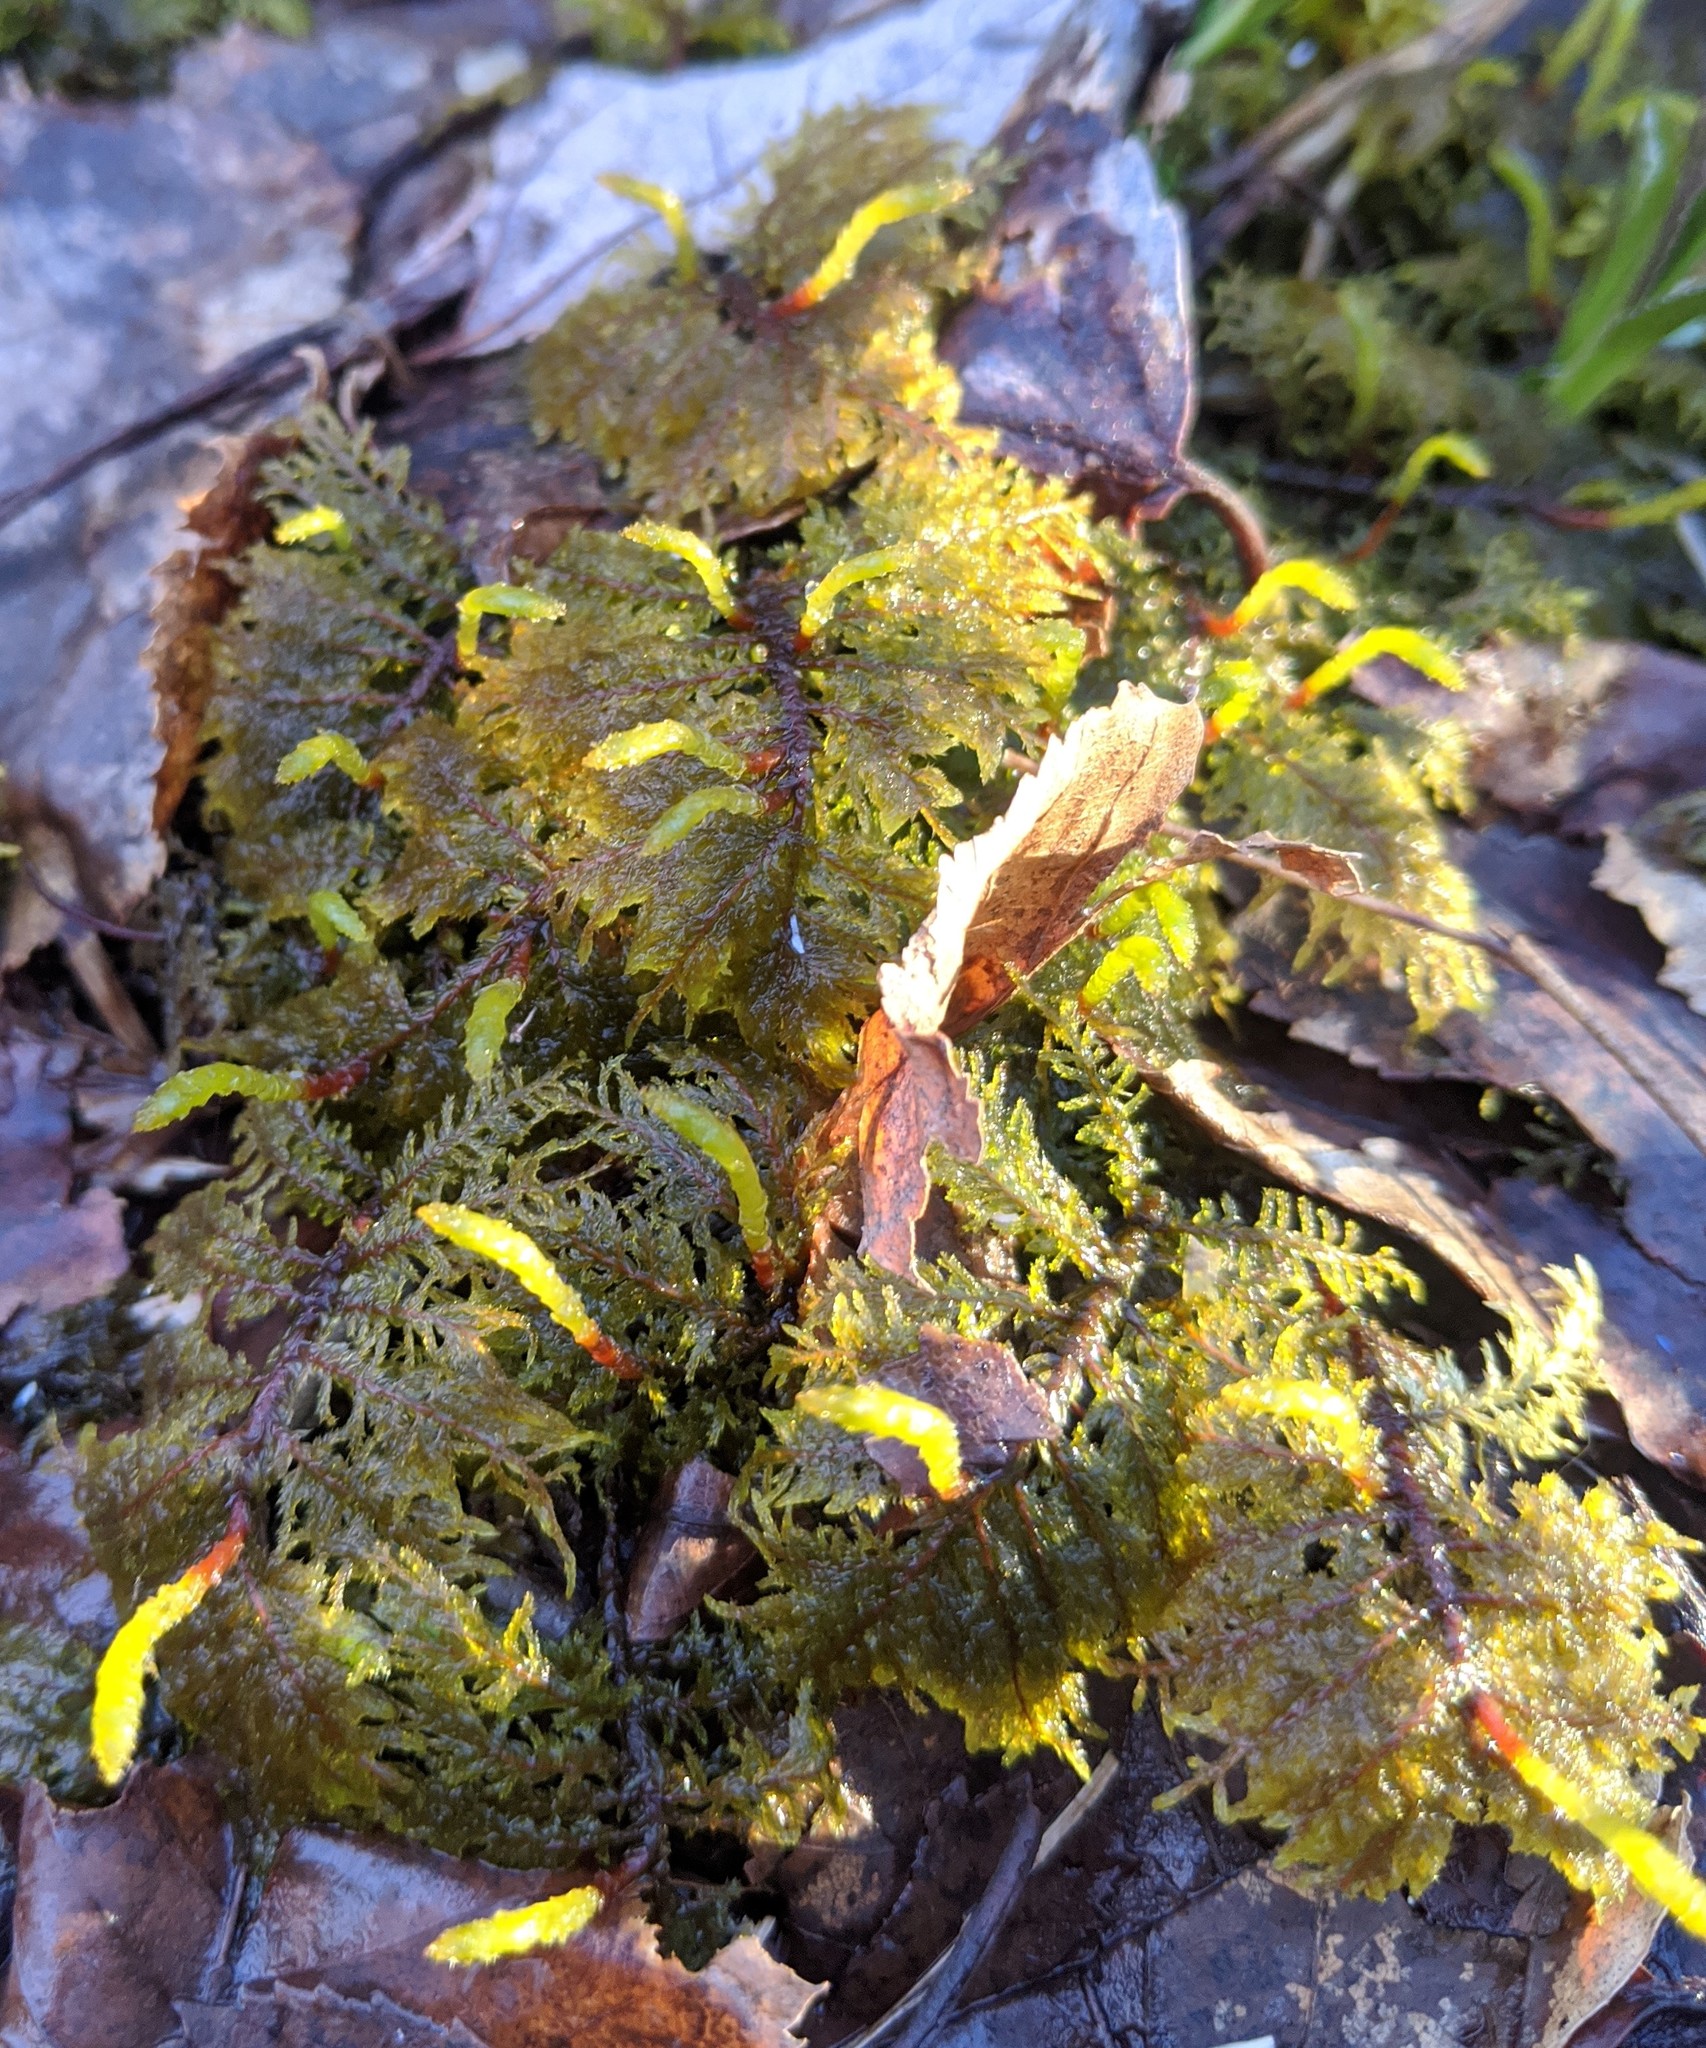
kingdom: Plantae
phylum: Bryophyta
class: Bryopsida
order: Hypnales
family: Hylocomiaceae
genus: Hylocomium
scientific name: Hylocomium splendens
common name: Stairstep moss
